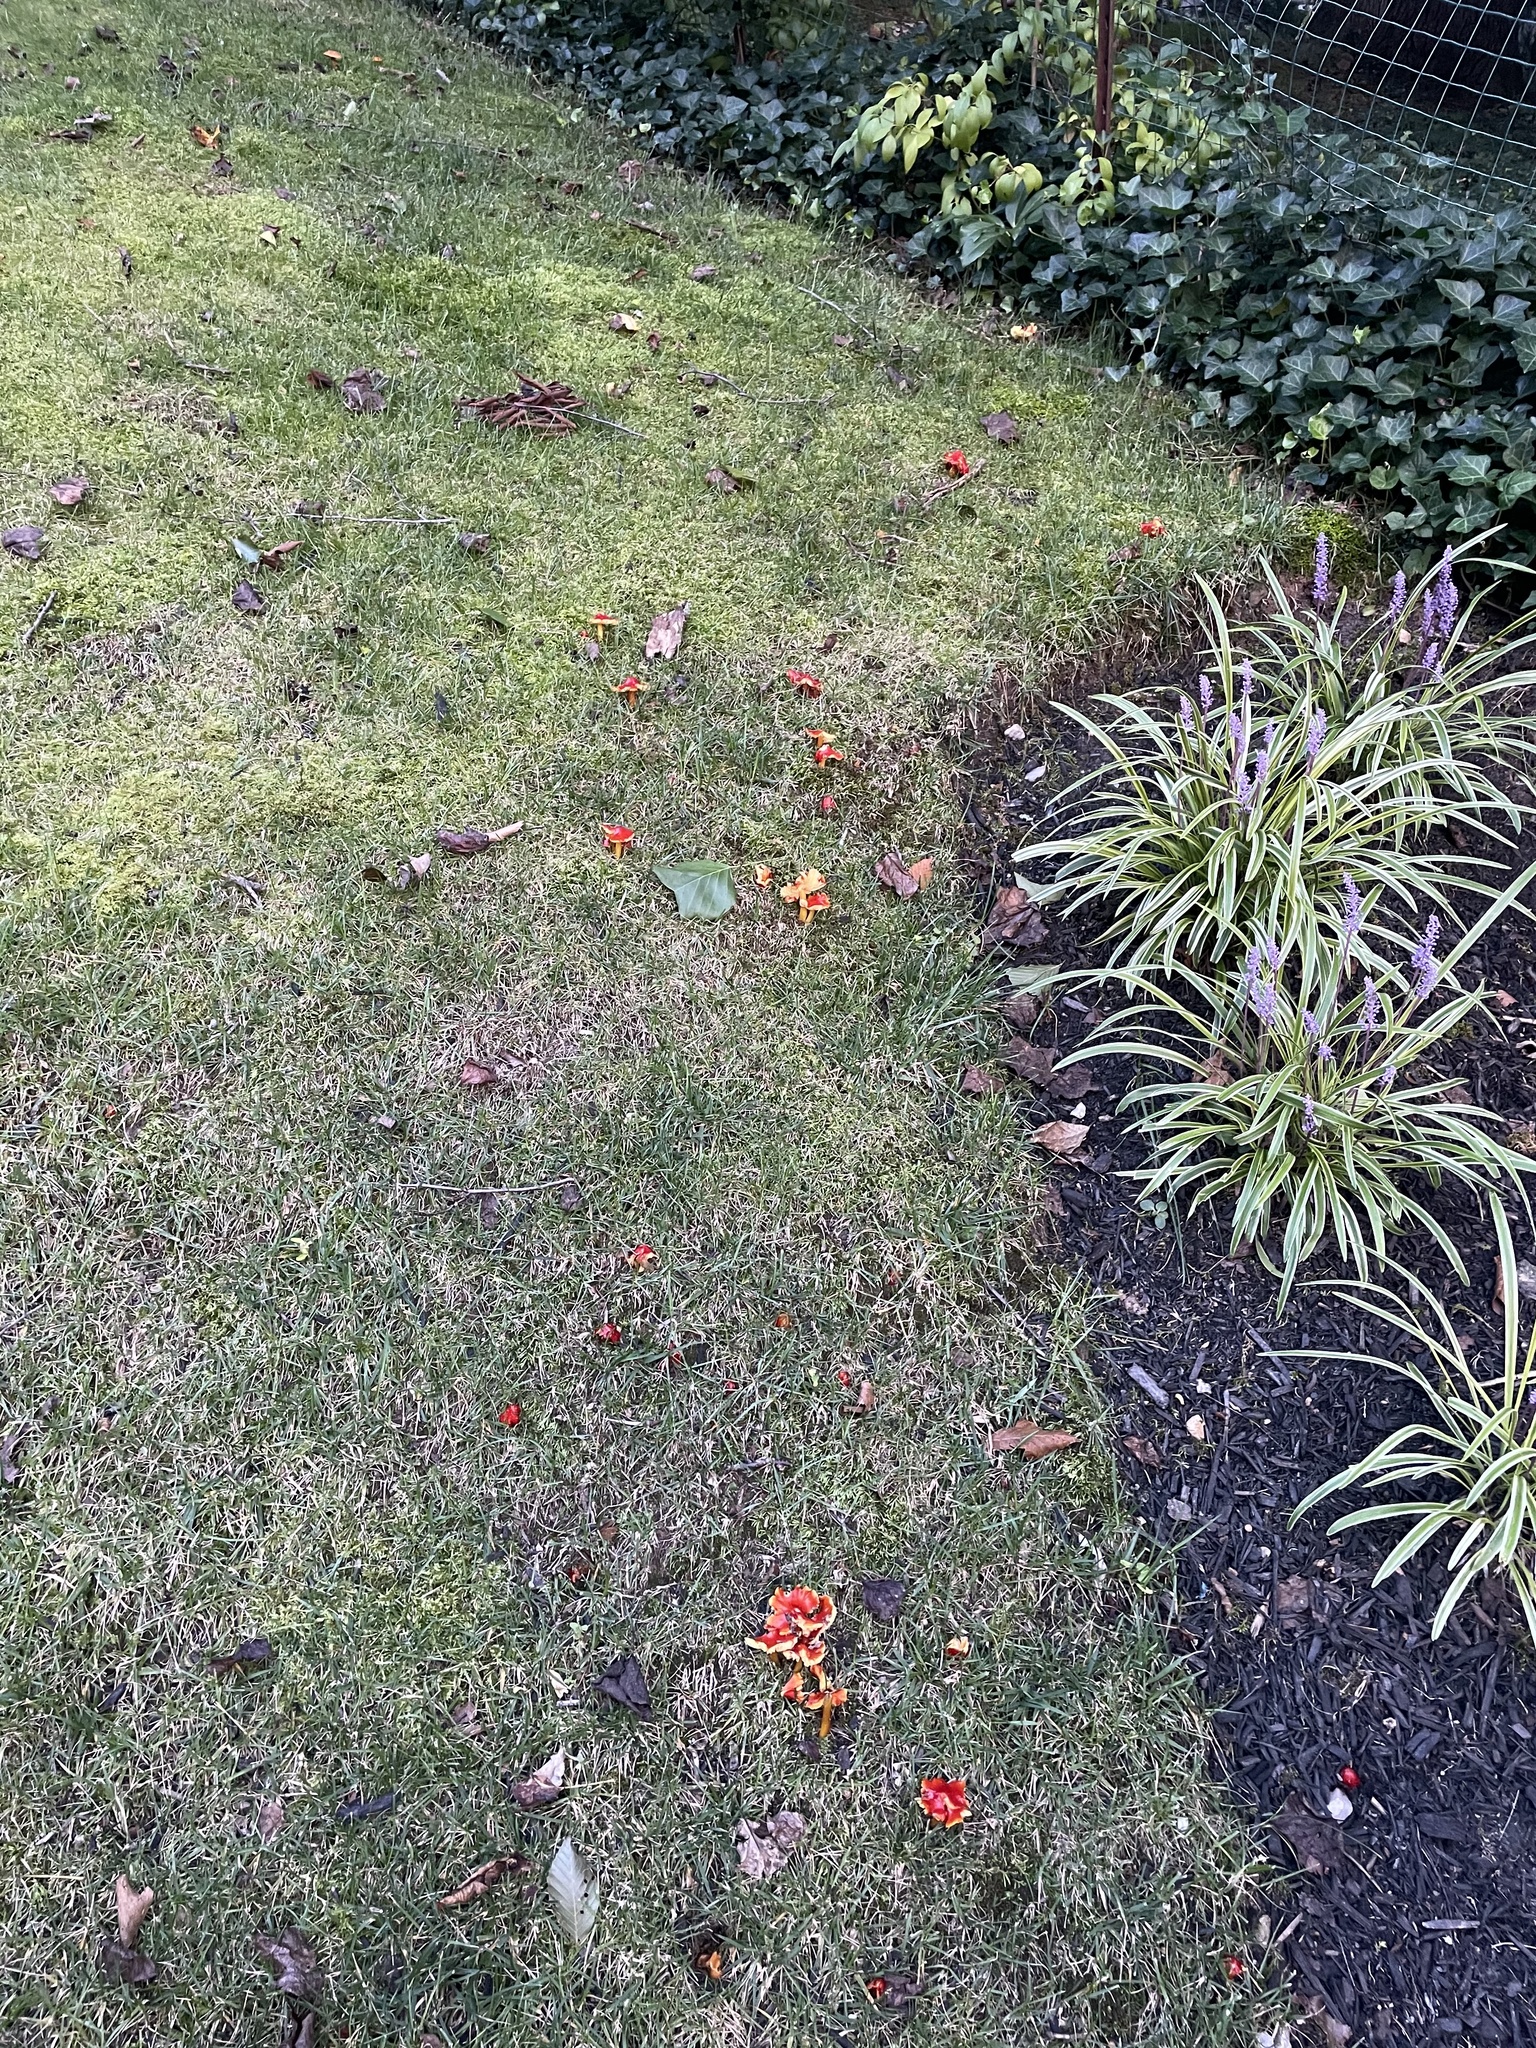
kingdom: Fungi
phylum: Basidiomycota
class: Agaricomycetes
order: Agaricales
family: Hygrophoraceae
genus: Hygrocybe
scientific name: Hygrocybe cuspidata
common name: Candy apple waxy cap
